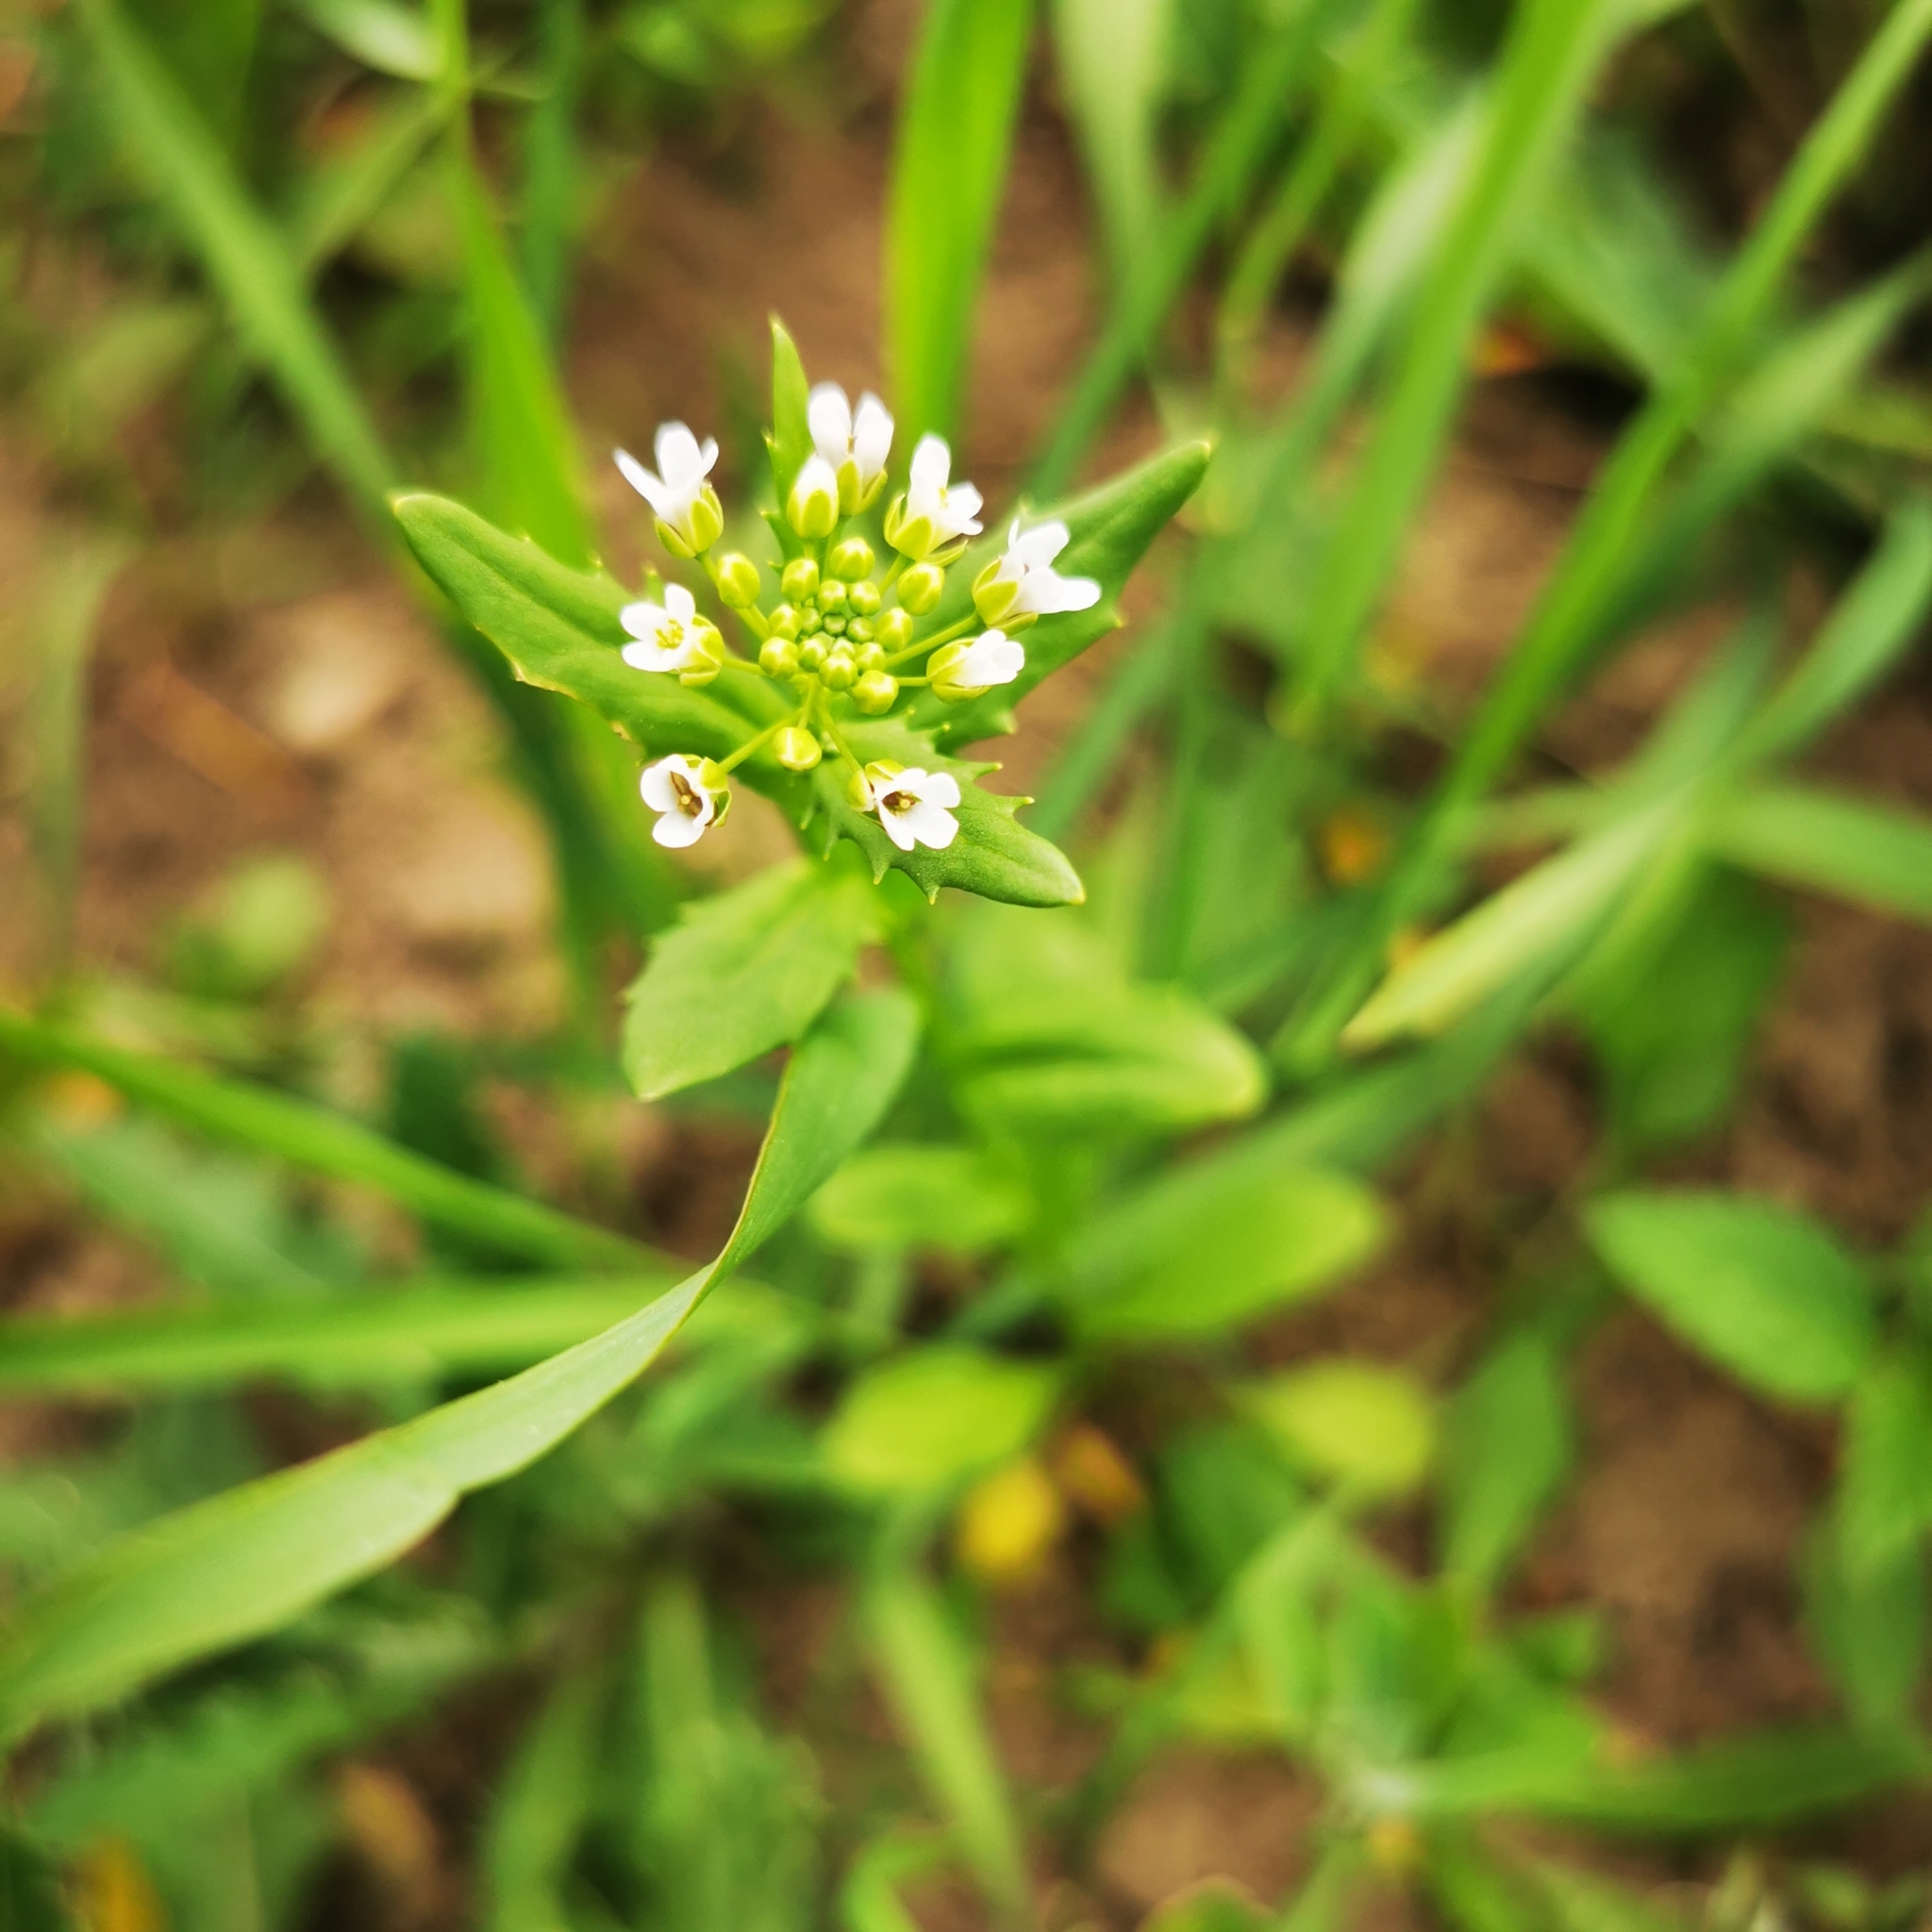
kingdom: Plantae
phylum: Tracheophyta
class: Magnoliopsida
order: Brassicales
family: Brassicaceae
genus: Thlaspi
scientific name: Thlaspi arvense
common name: Field pennycress
